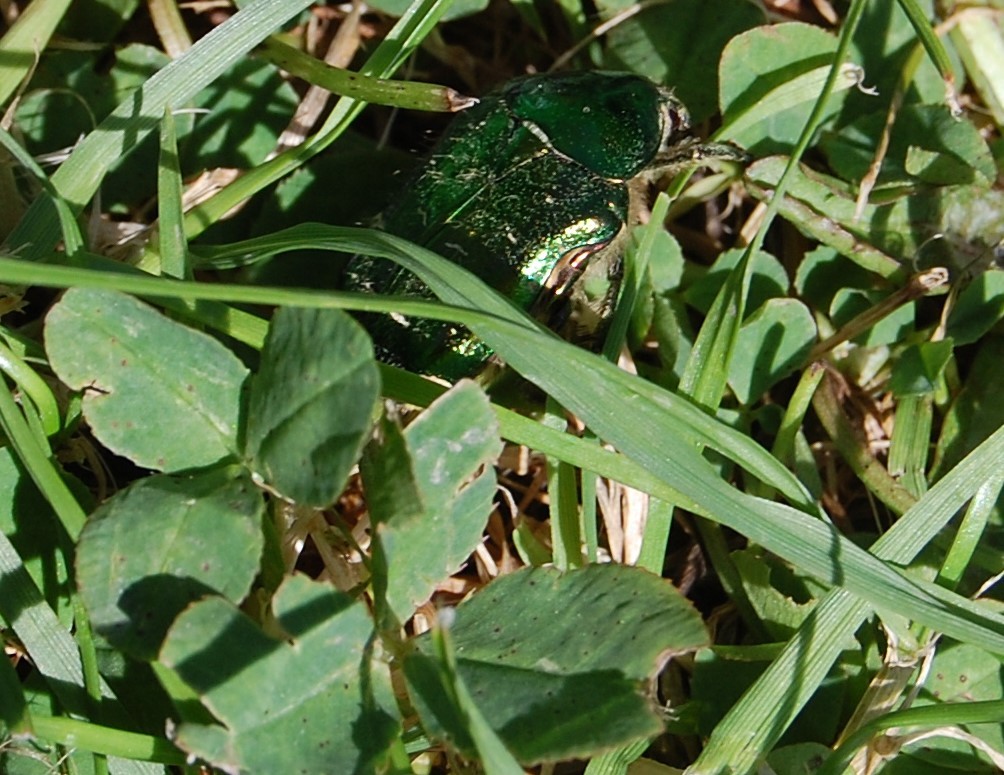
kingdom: Animalia
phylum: Arthropoda
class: Insecta
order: Coleoptera
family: Scarabaeidae
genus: Cetonia
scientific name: Cetonia aurata
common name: Rose chafer
